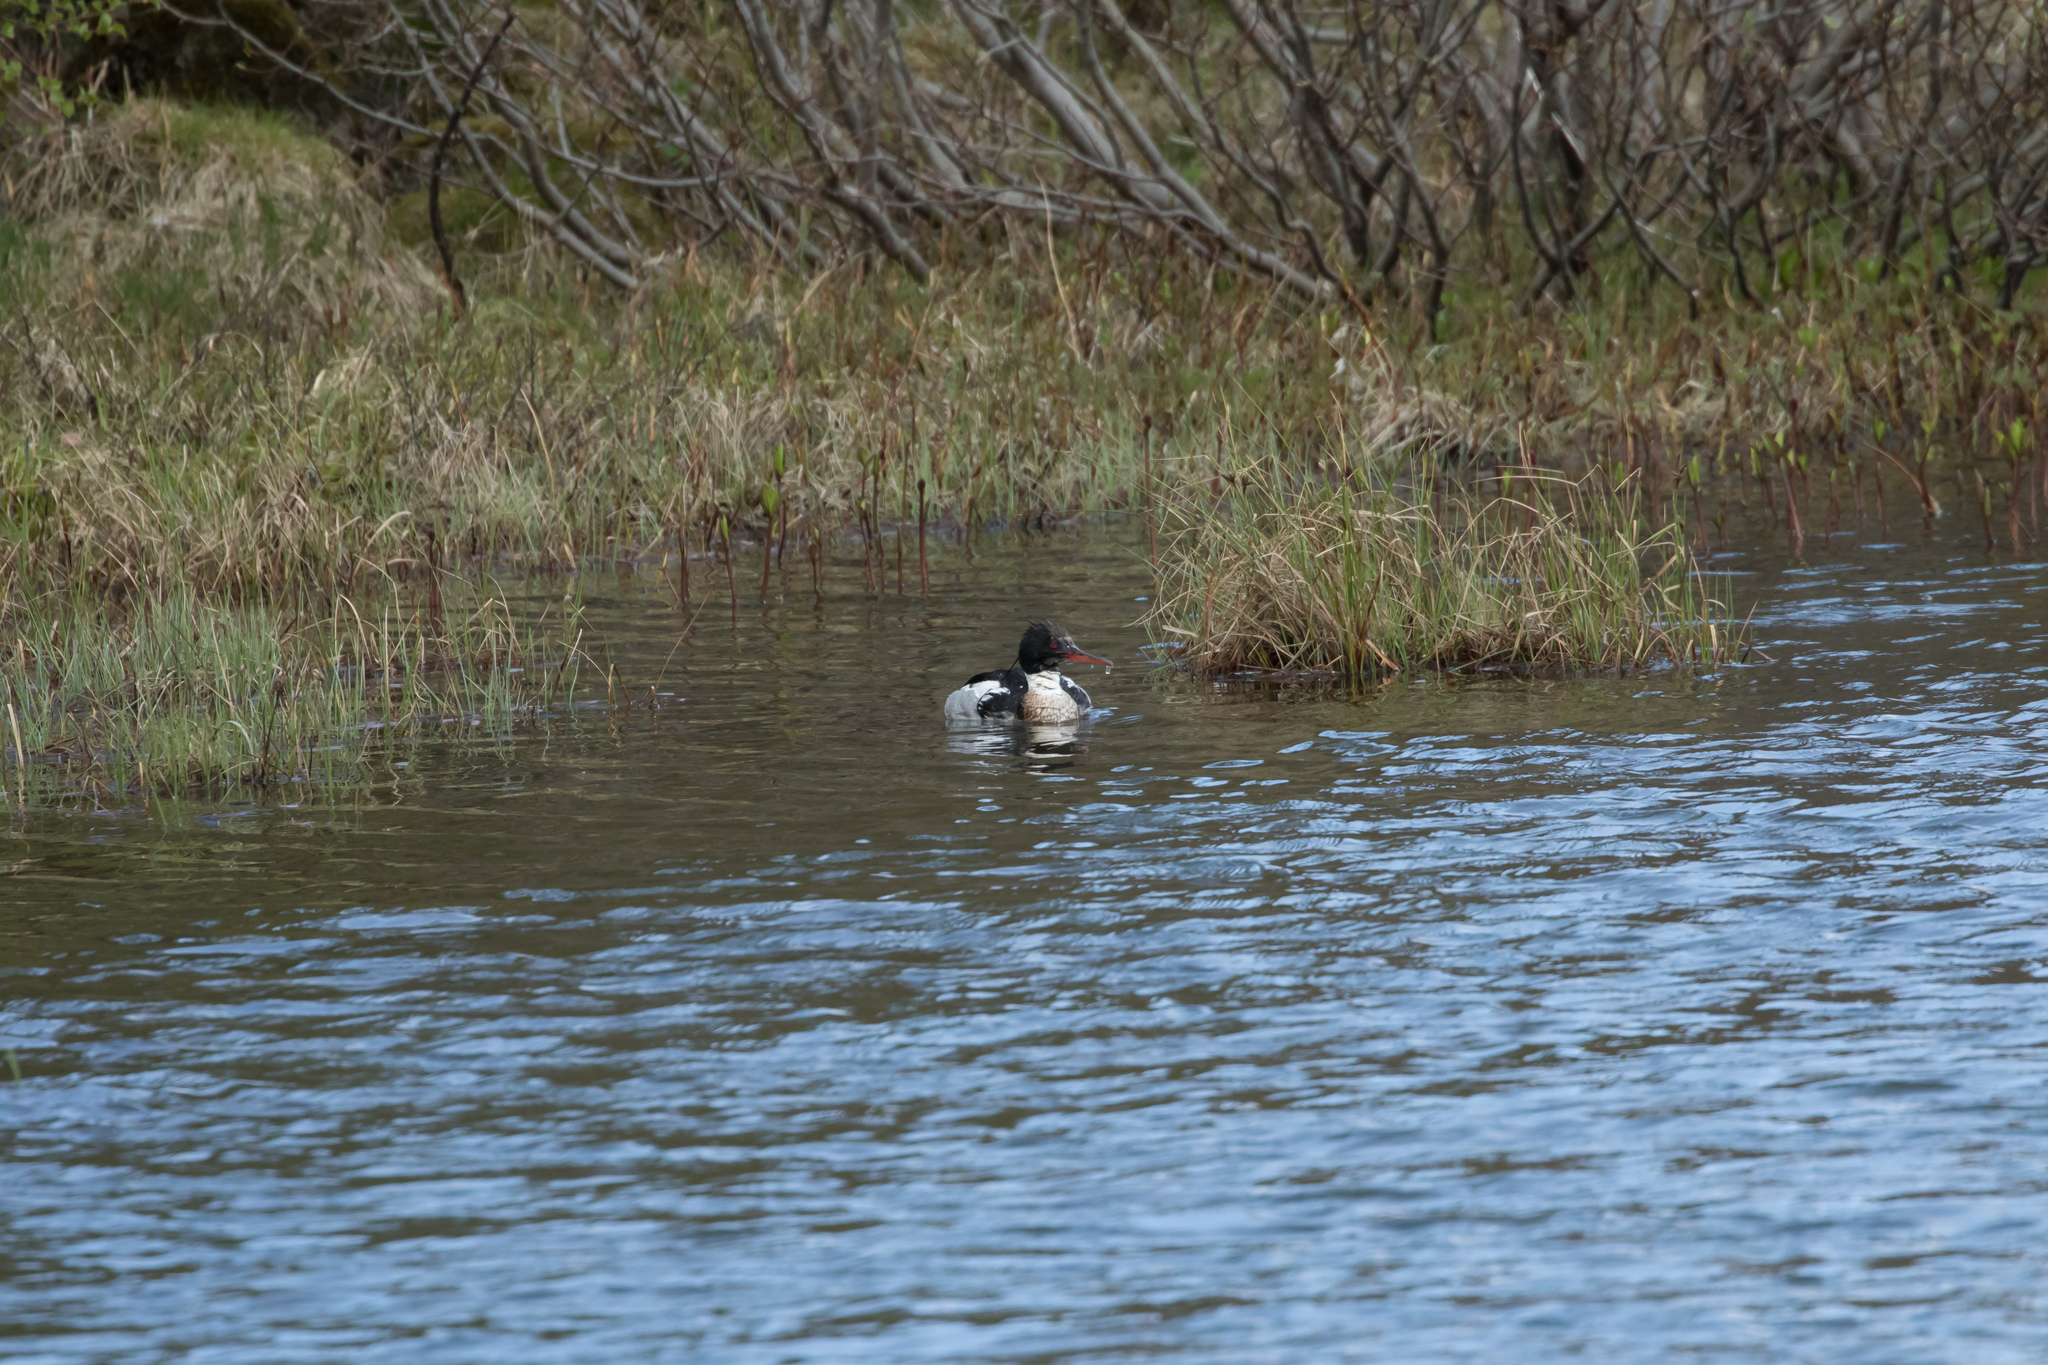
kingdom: Animalia
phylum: Chordata
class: Aves
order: Anseriformes
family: Anatidae
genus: Mergus
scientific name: Mergus serrator
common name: Red-breasted merganser
